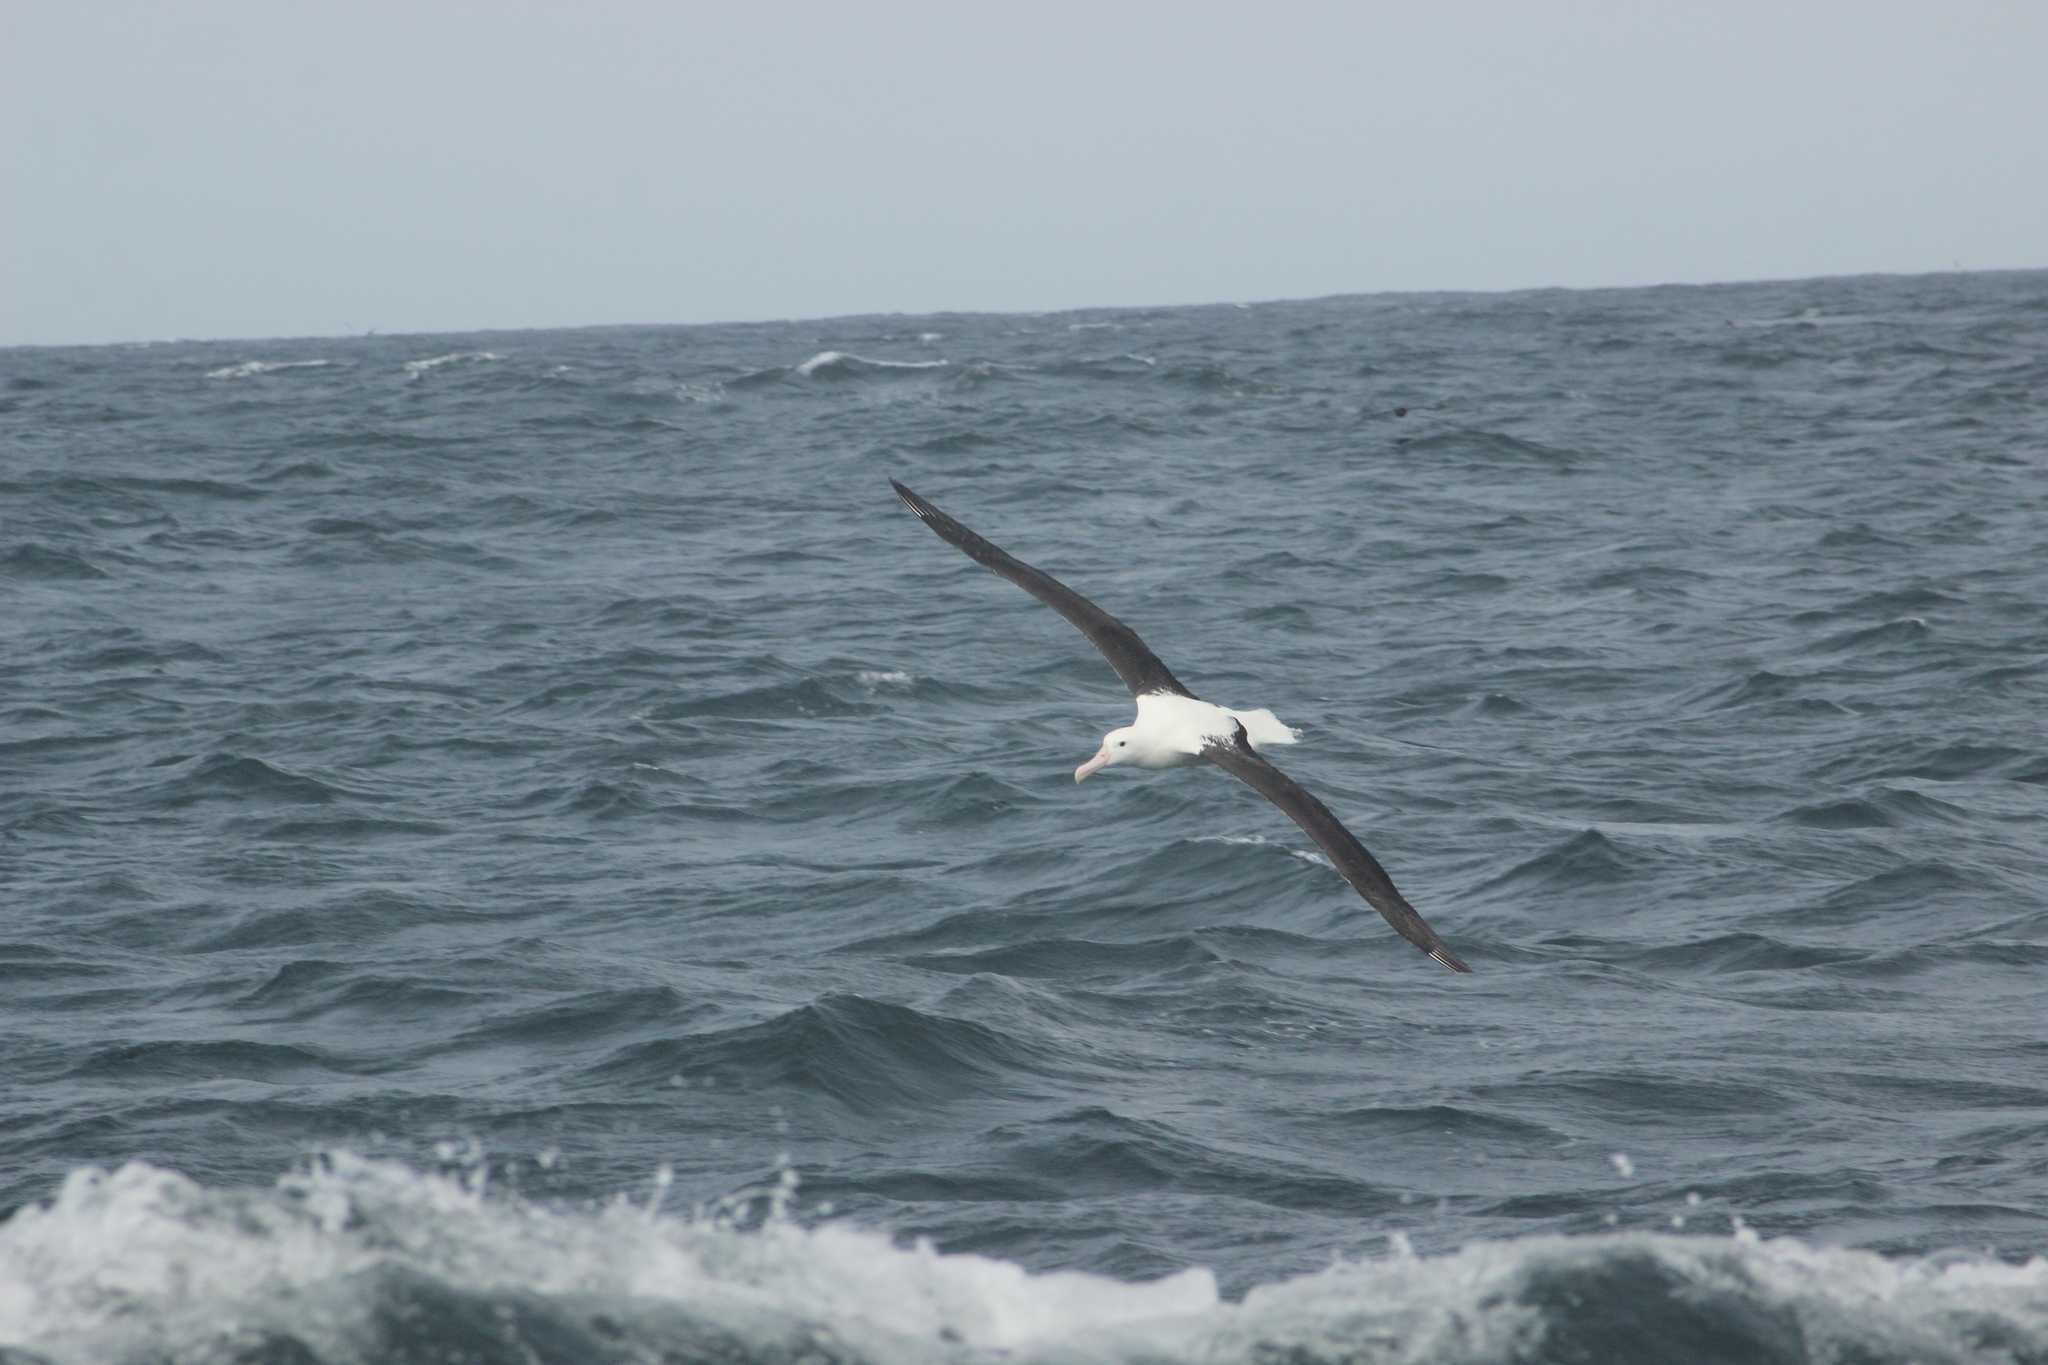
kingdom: Animalia
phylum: Chordata
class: Aves
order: Procellariiformes
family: Diomedeidae
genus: Diomedea
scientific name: Diomedea sanfordi
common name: Northern royal albatross
